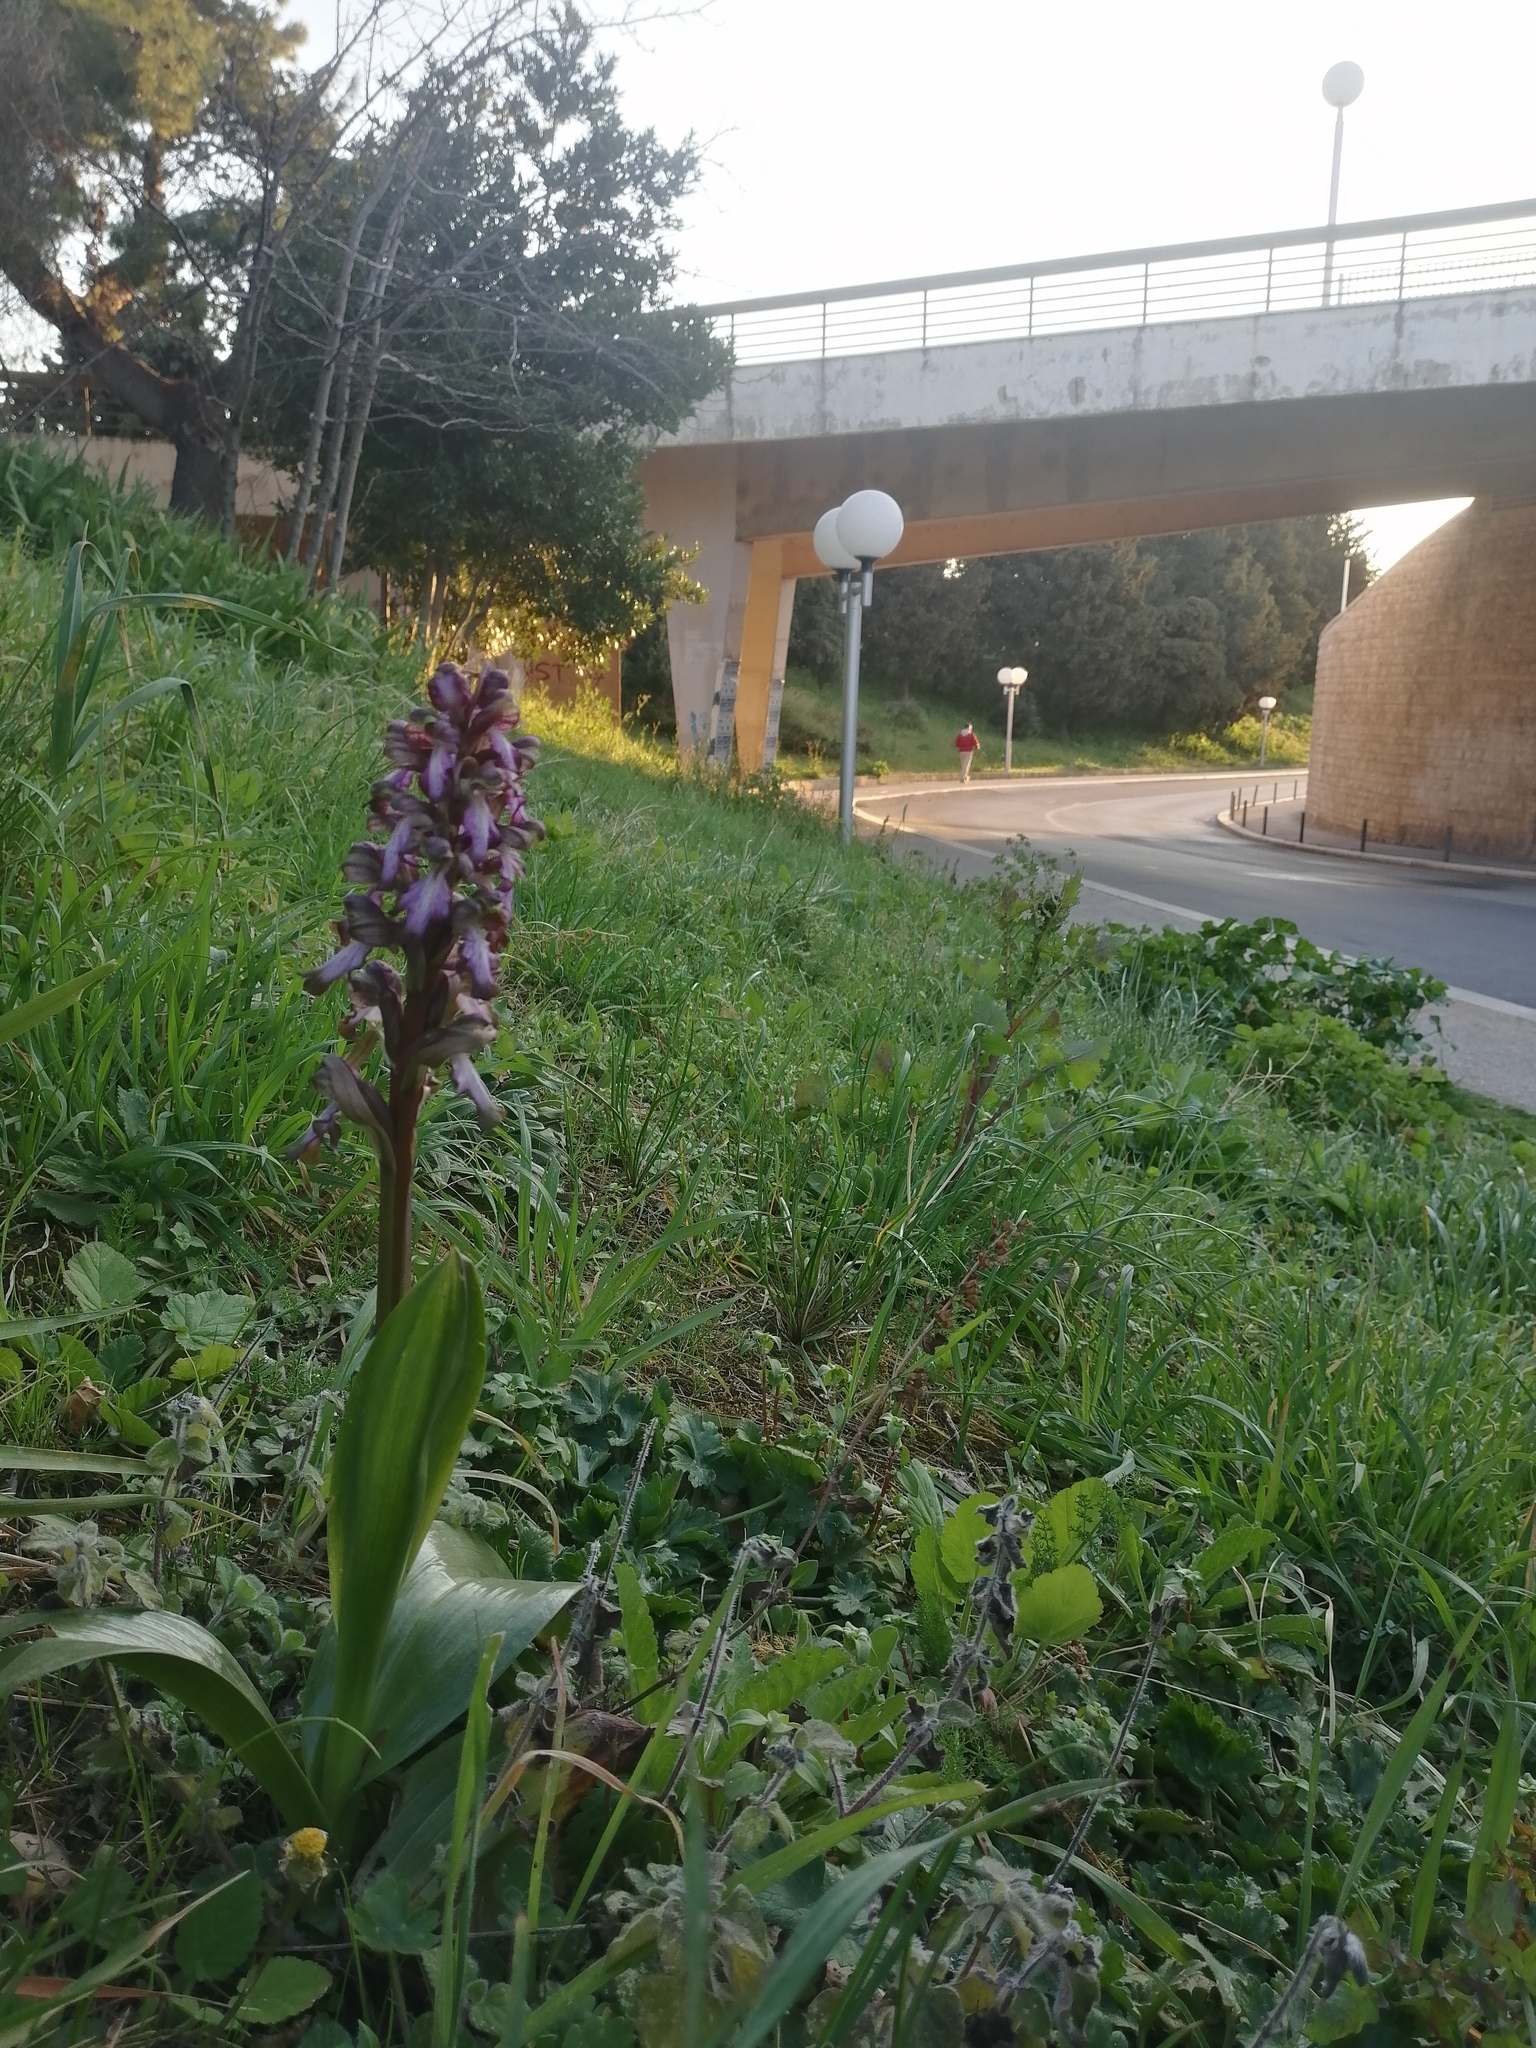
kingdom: Plantae
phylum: Tracheophyta
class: Liliopsida
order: Asparagales
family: Orchidaceae
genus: Himantoglossum
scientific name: Himantoglossum robertianum
